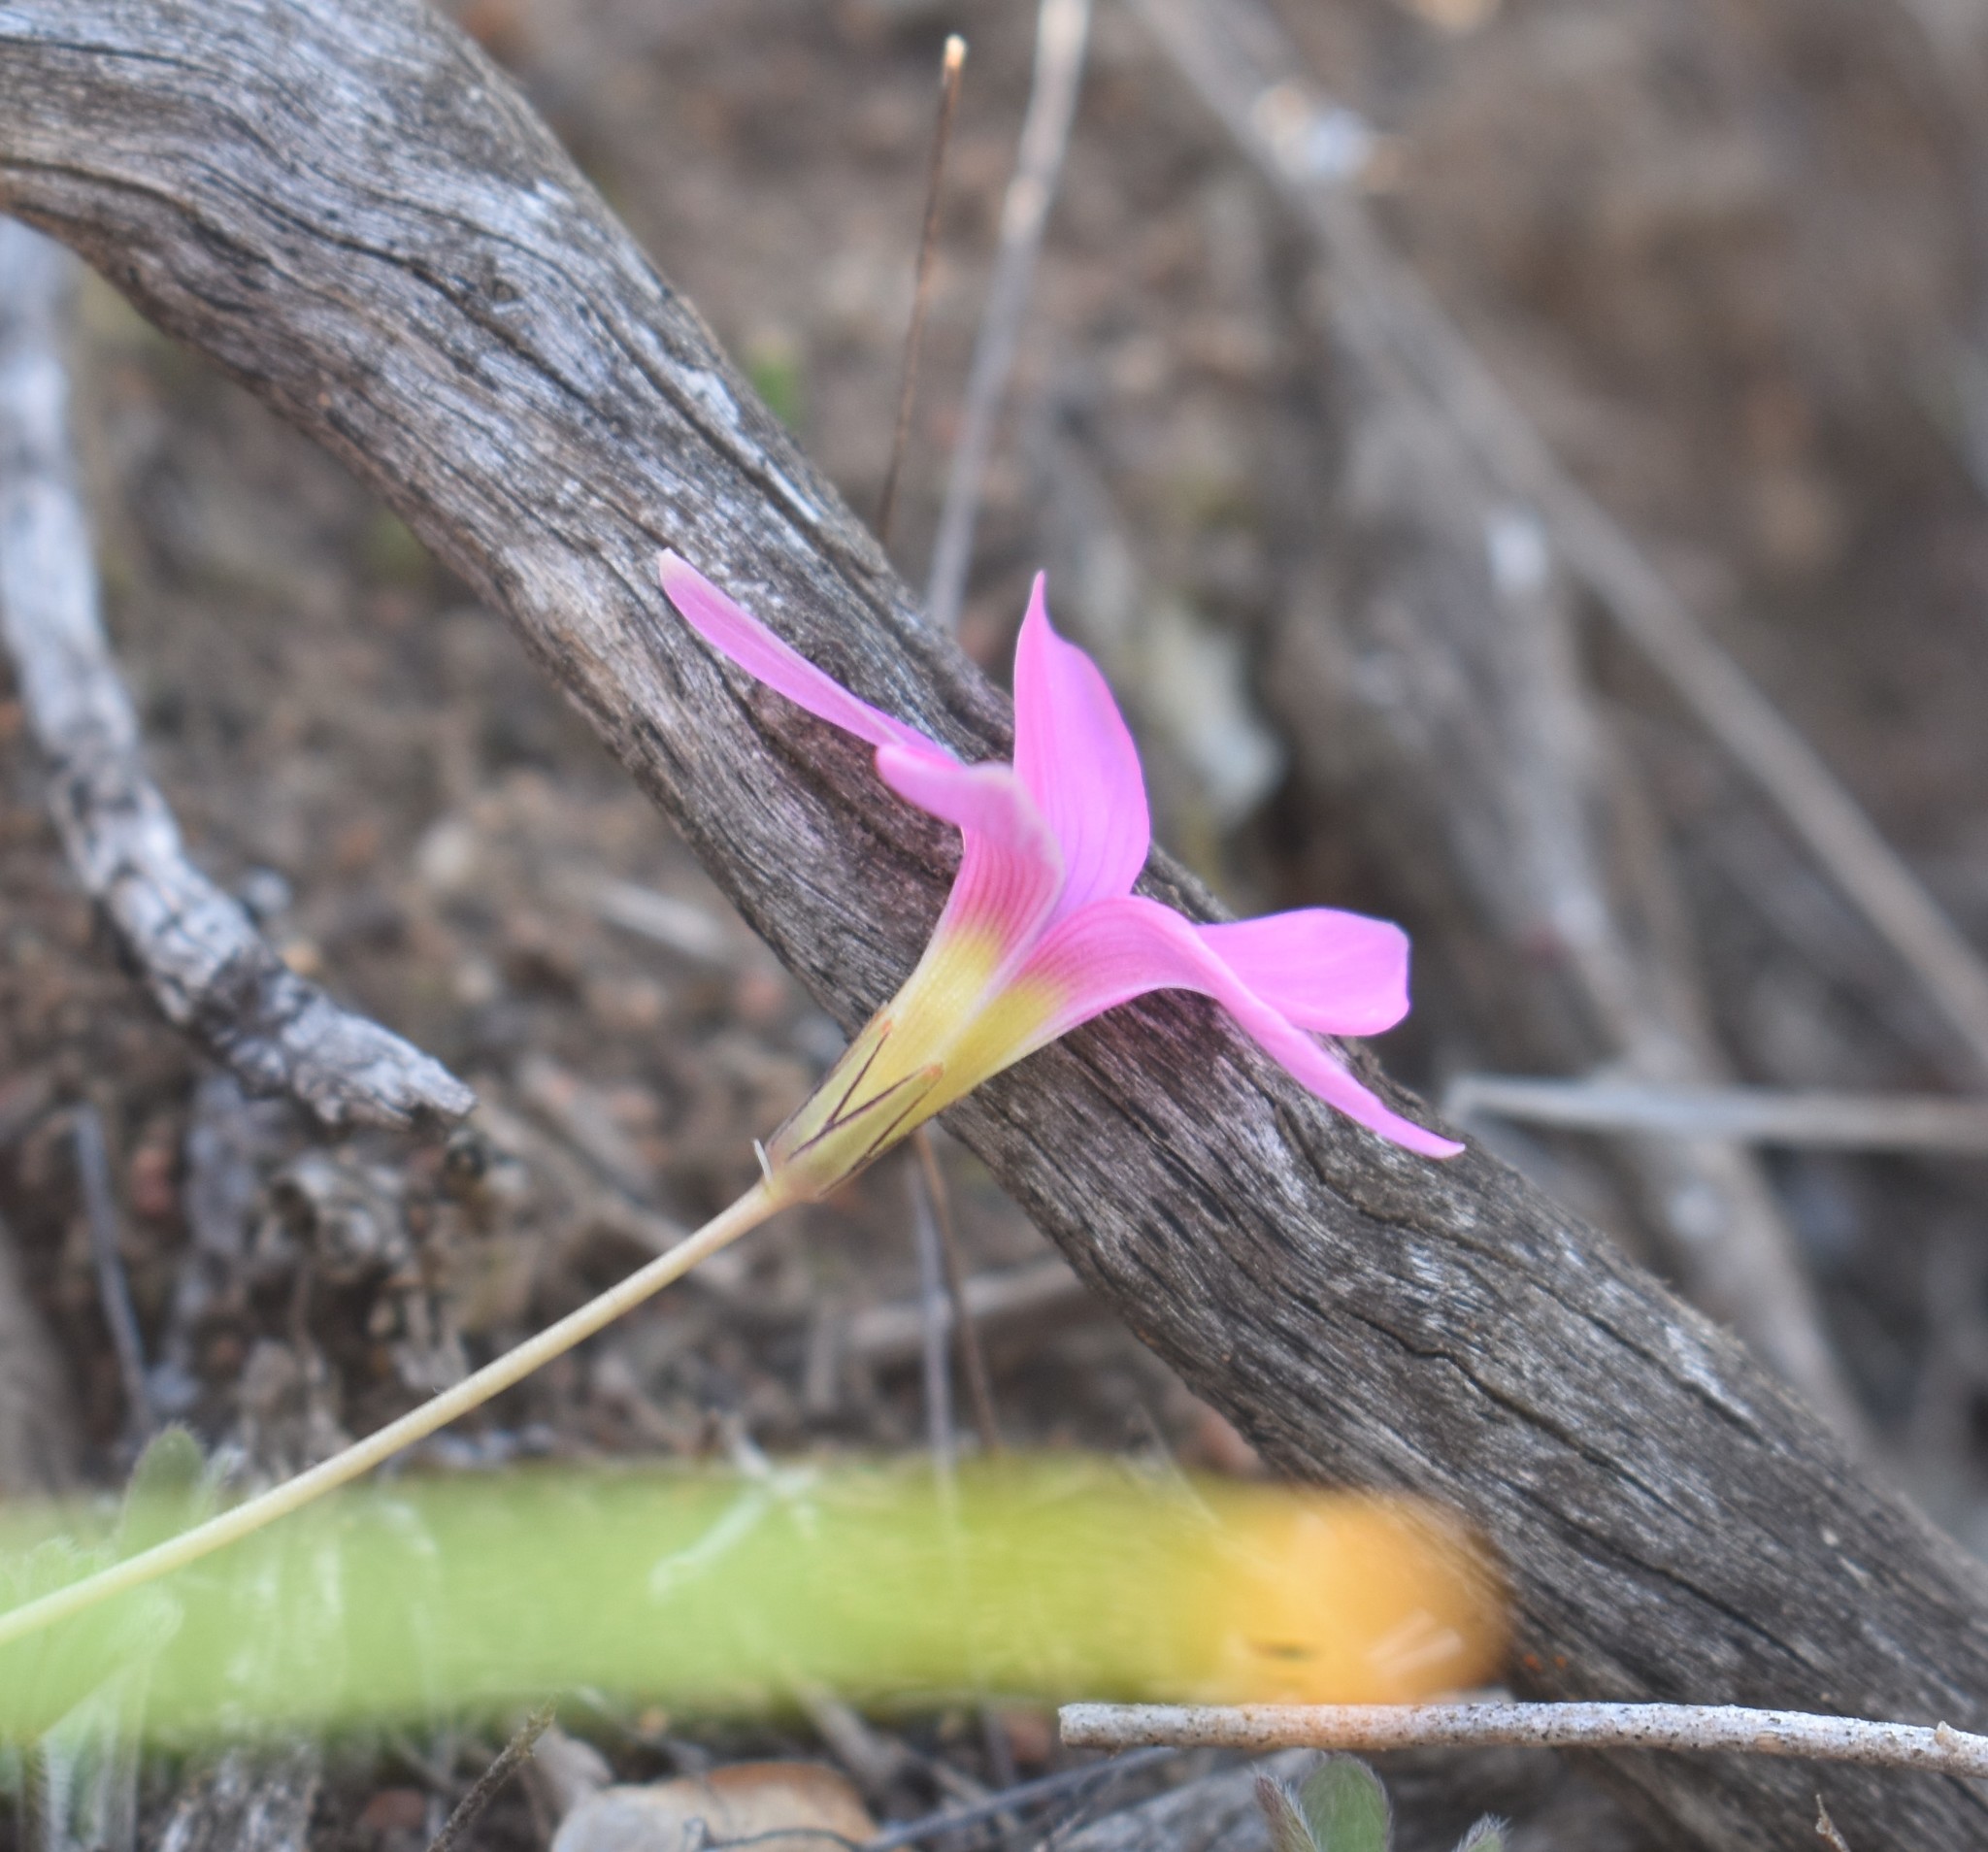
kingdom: Plantae
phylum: Tracheophyta
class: Magnoliopsida
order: Oxalidales
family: Oxalidaceae
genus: Oxalis
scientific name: Oxalis depressa
